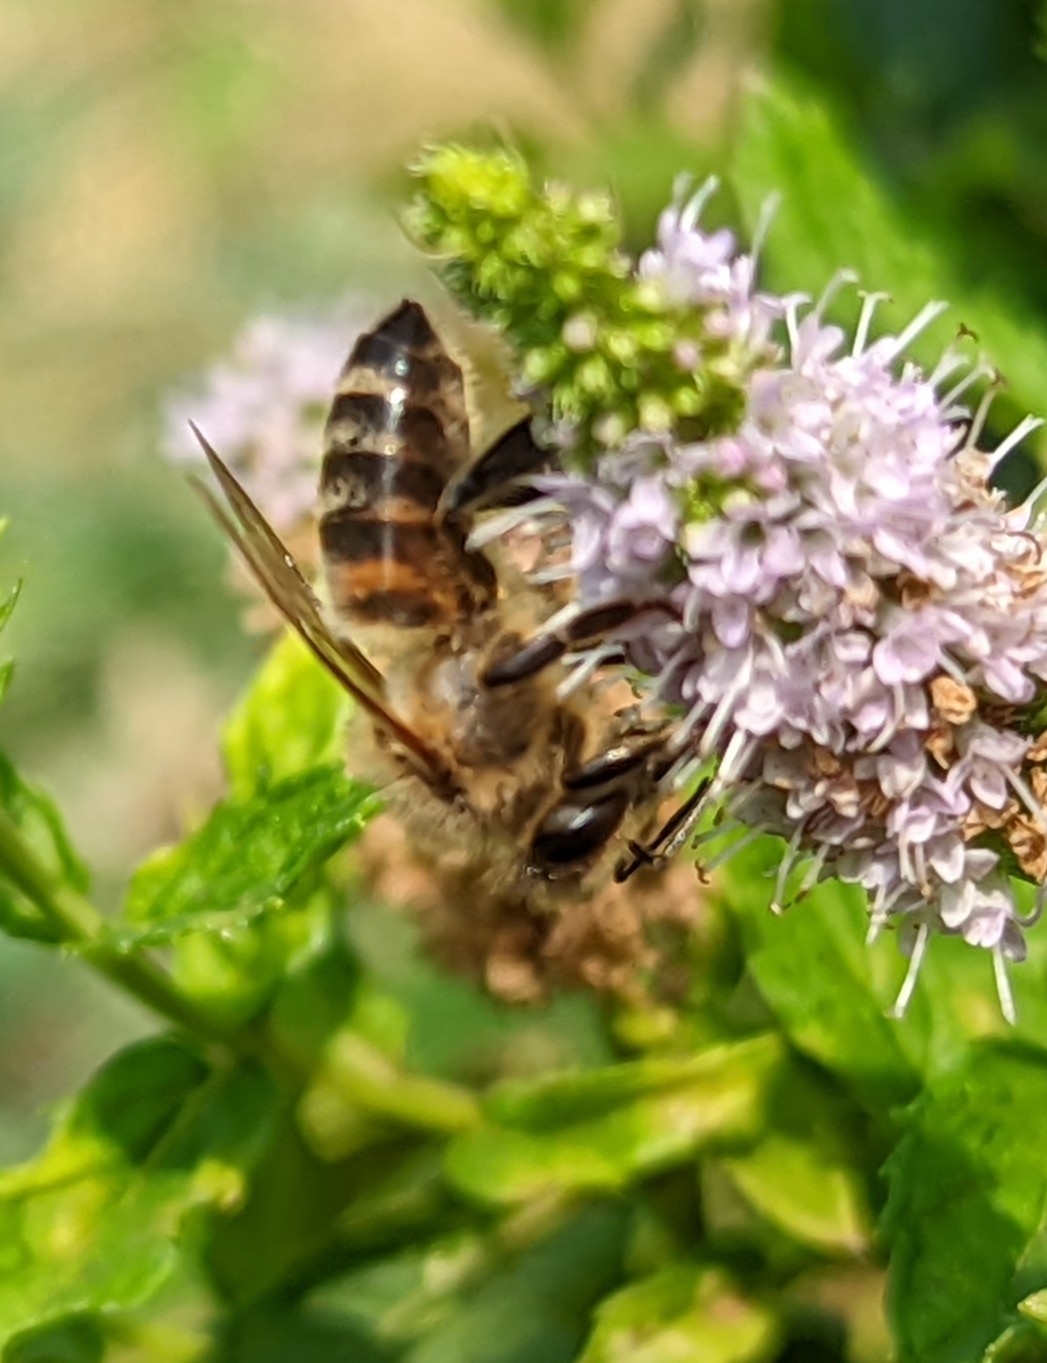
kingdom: Animalia
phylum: Arthropoda
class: Insecta
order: Hymenoptera
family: Apidae
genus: Apis
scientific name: Apis mellifera
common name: Honey bee
